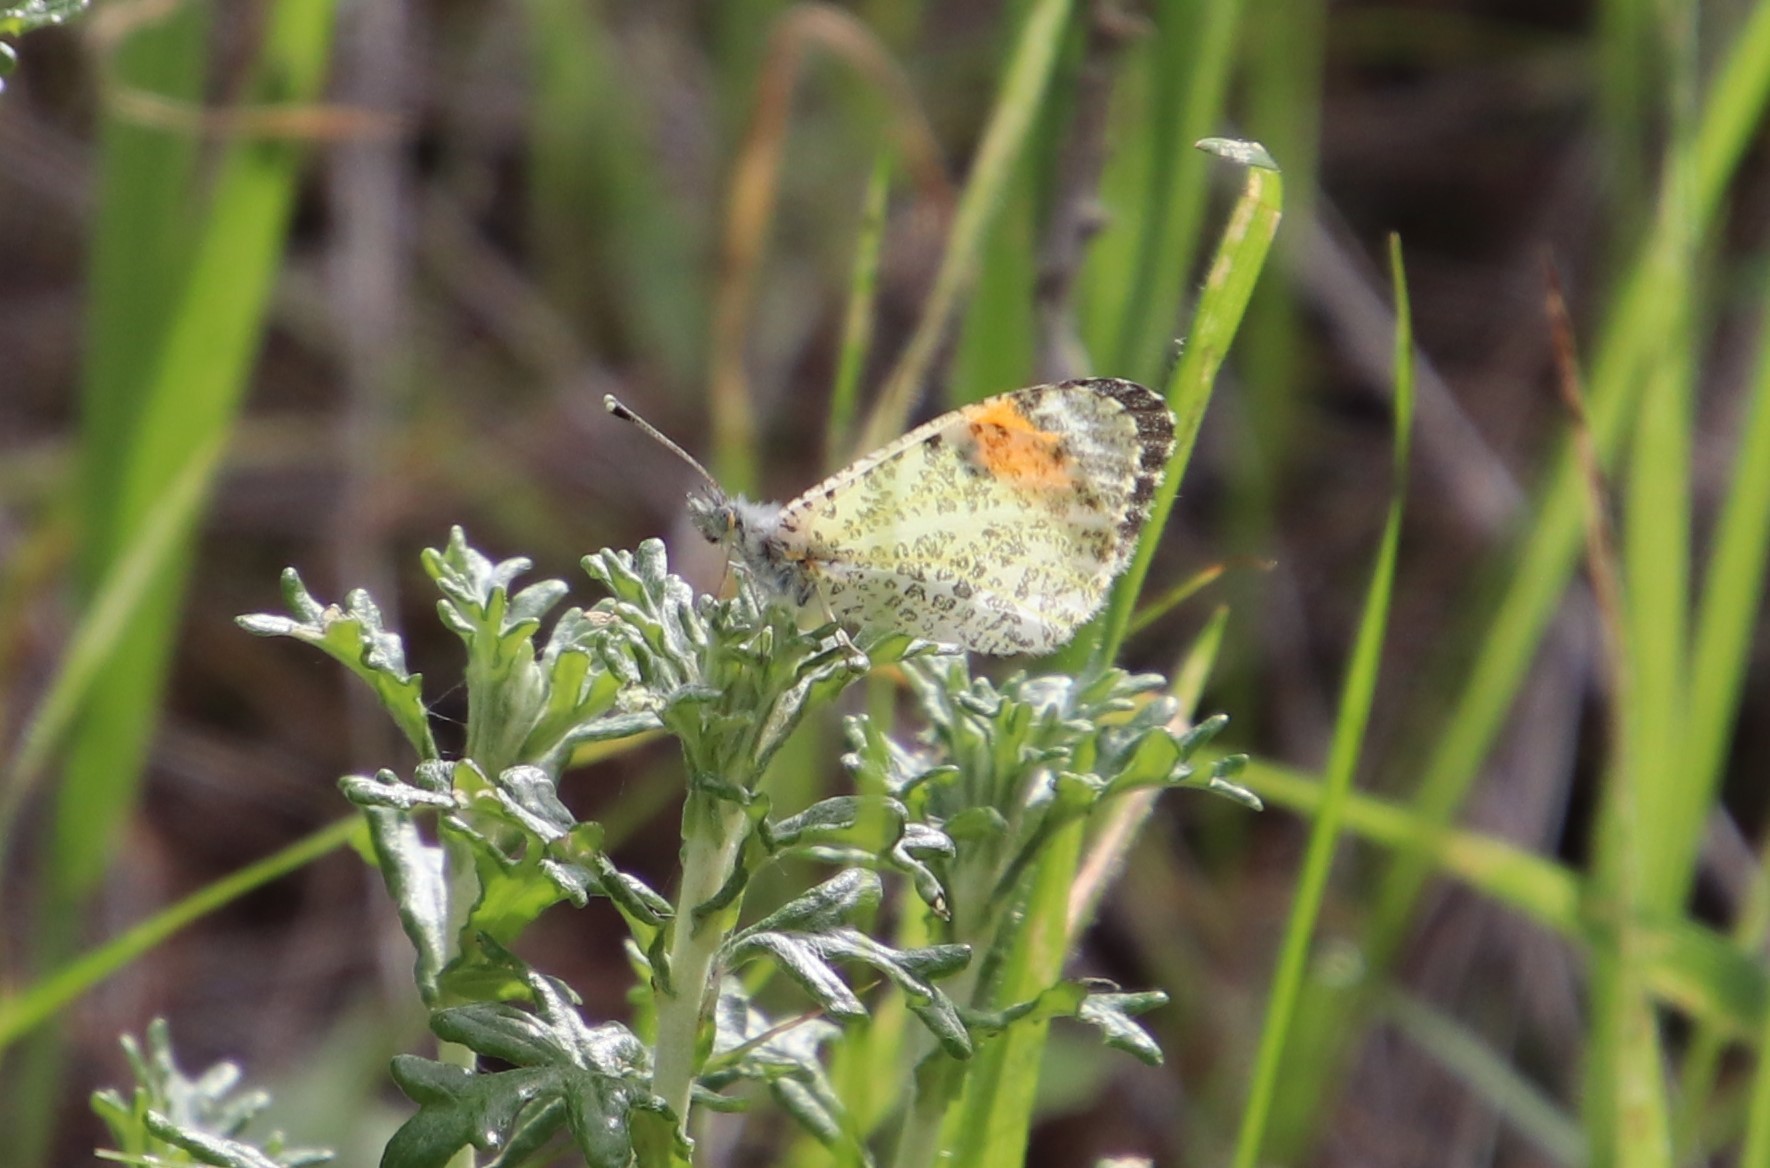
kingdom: Animalia
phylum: Arthropoda
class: Insecta
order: Lepidoptera
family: Pieridae
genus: Anthocharis
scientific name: Anthocharis sara
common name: Sara's orangetip
